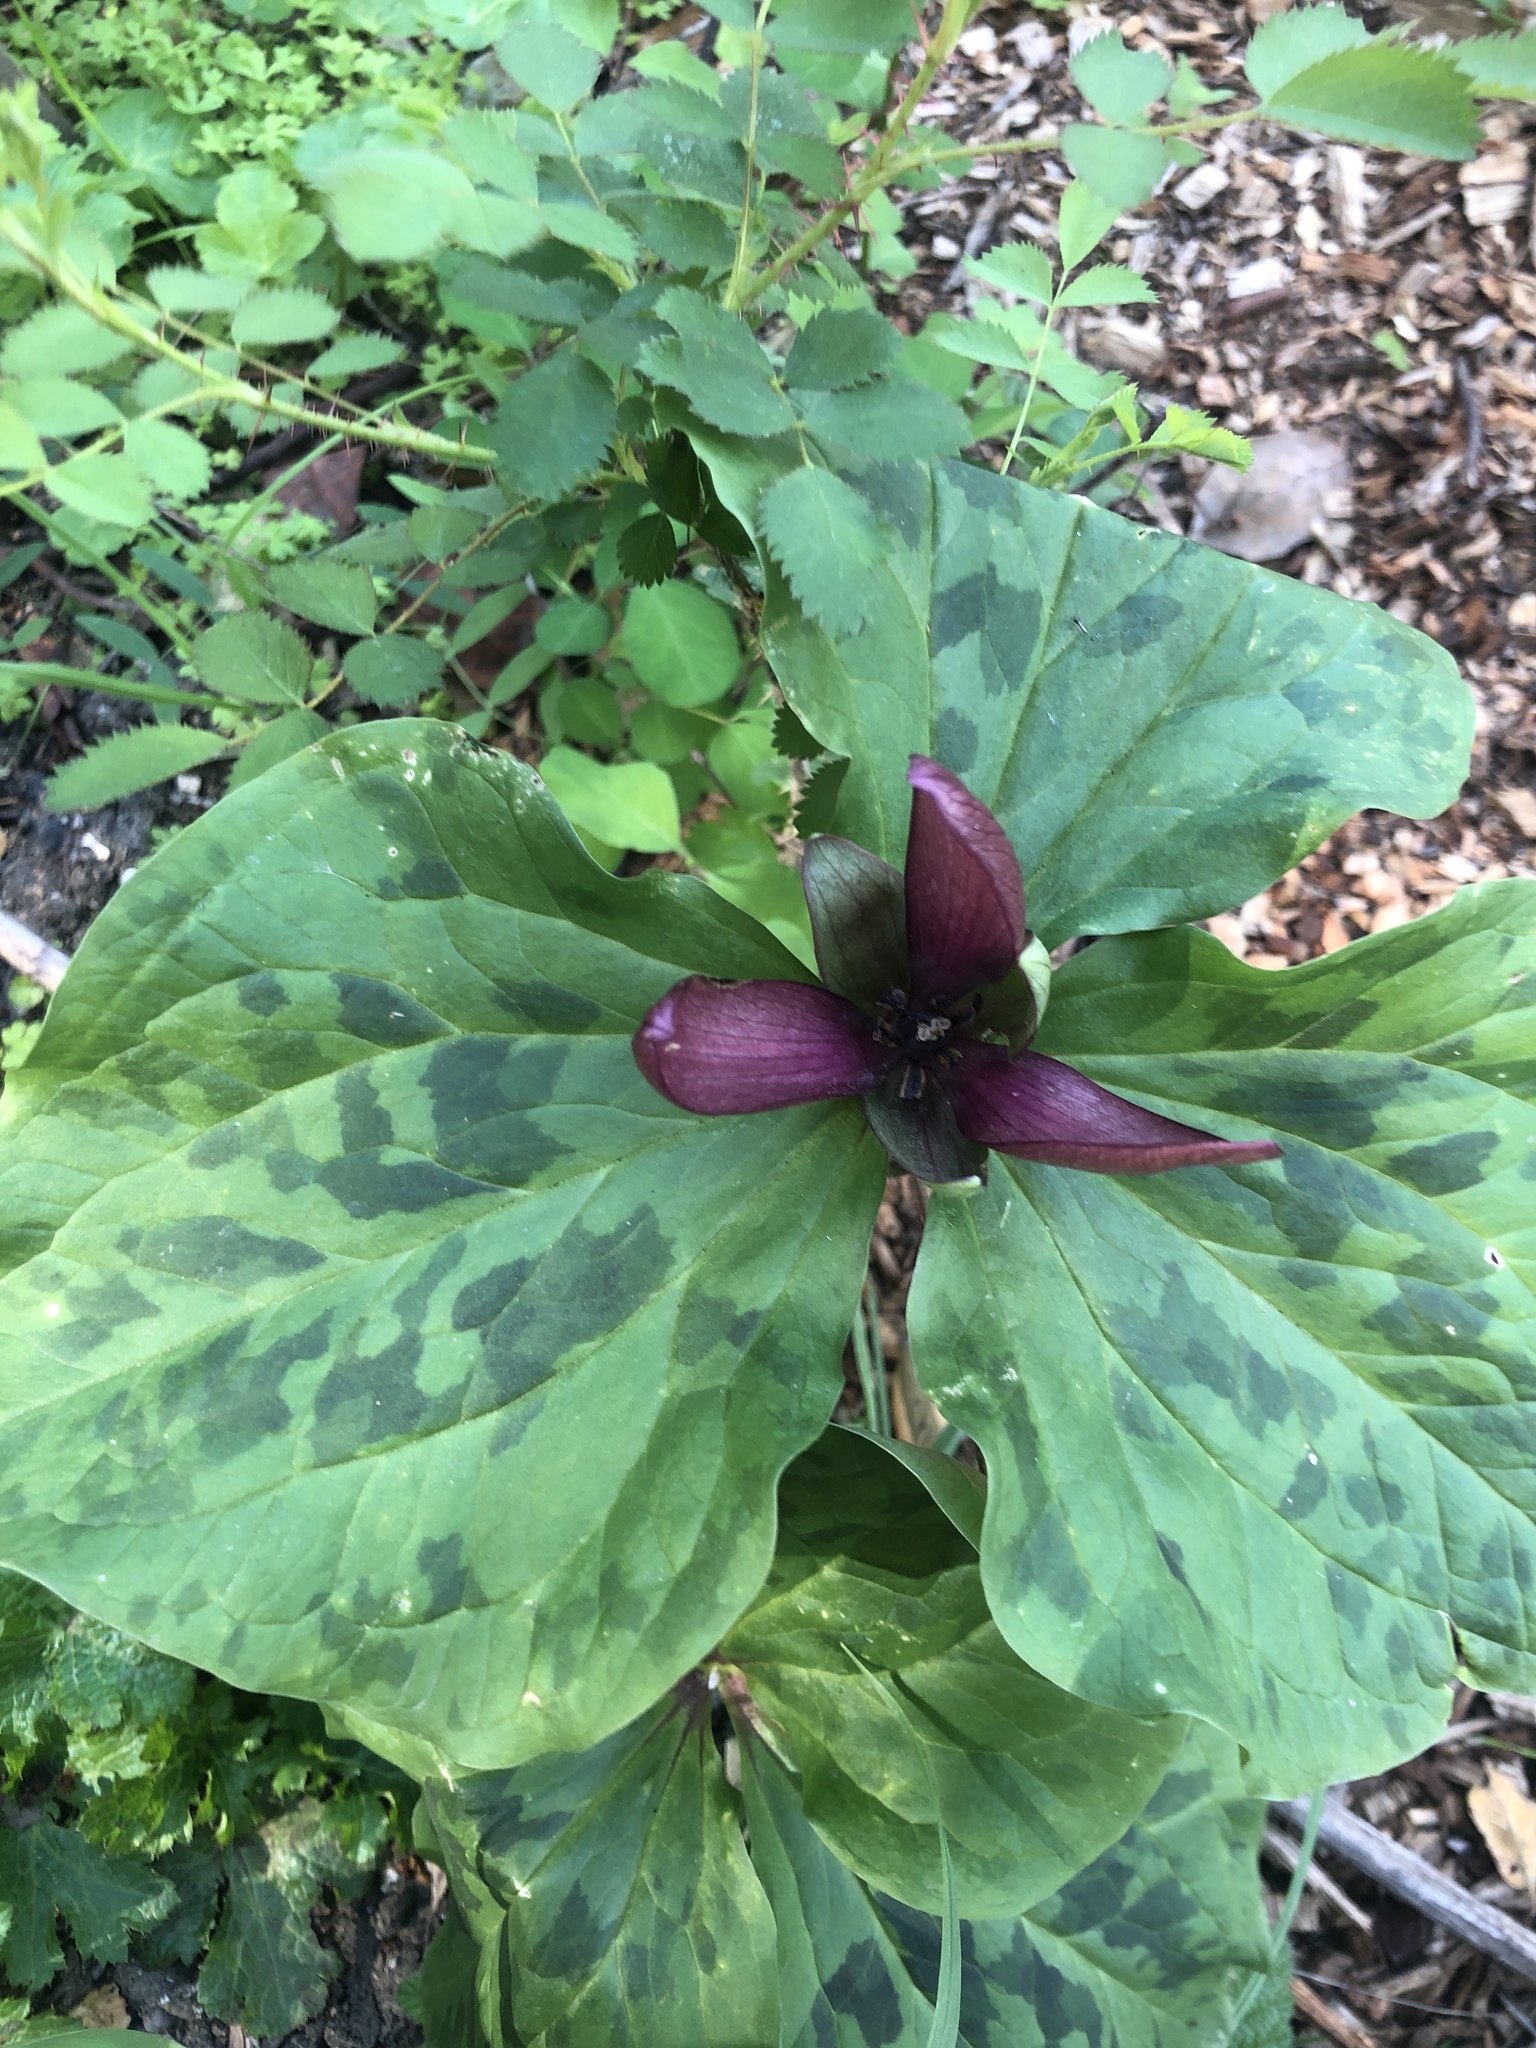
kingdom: Plantae
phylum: Tracheophyta
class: Liliopsida
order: Liliales
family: Melanthiaceae
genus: Trillium
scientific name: Trillium chloropetalum
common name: Giant trillium
